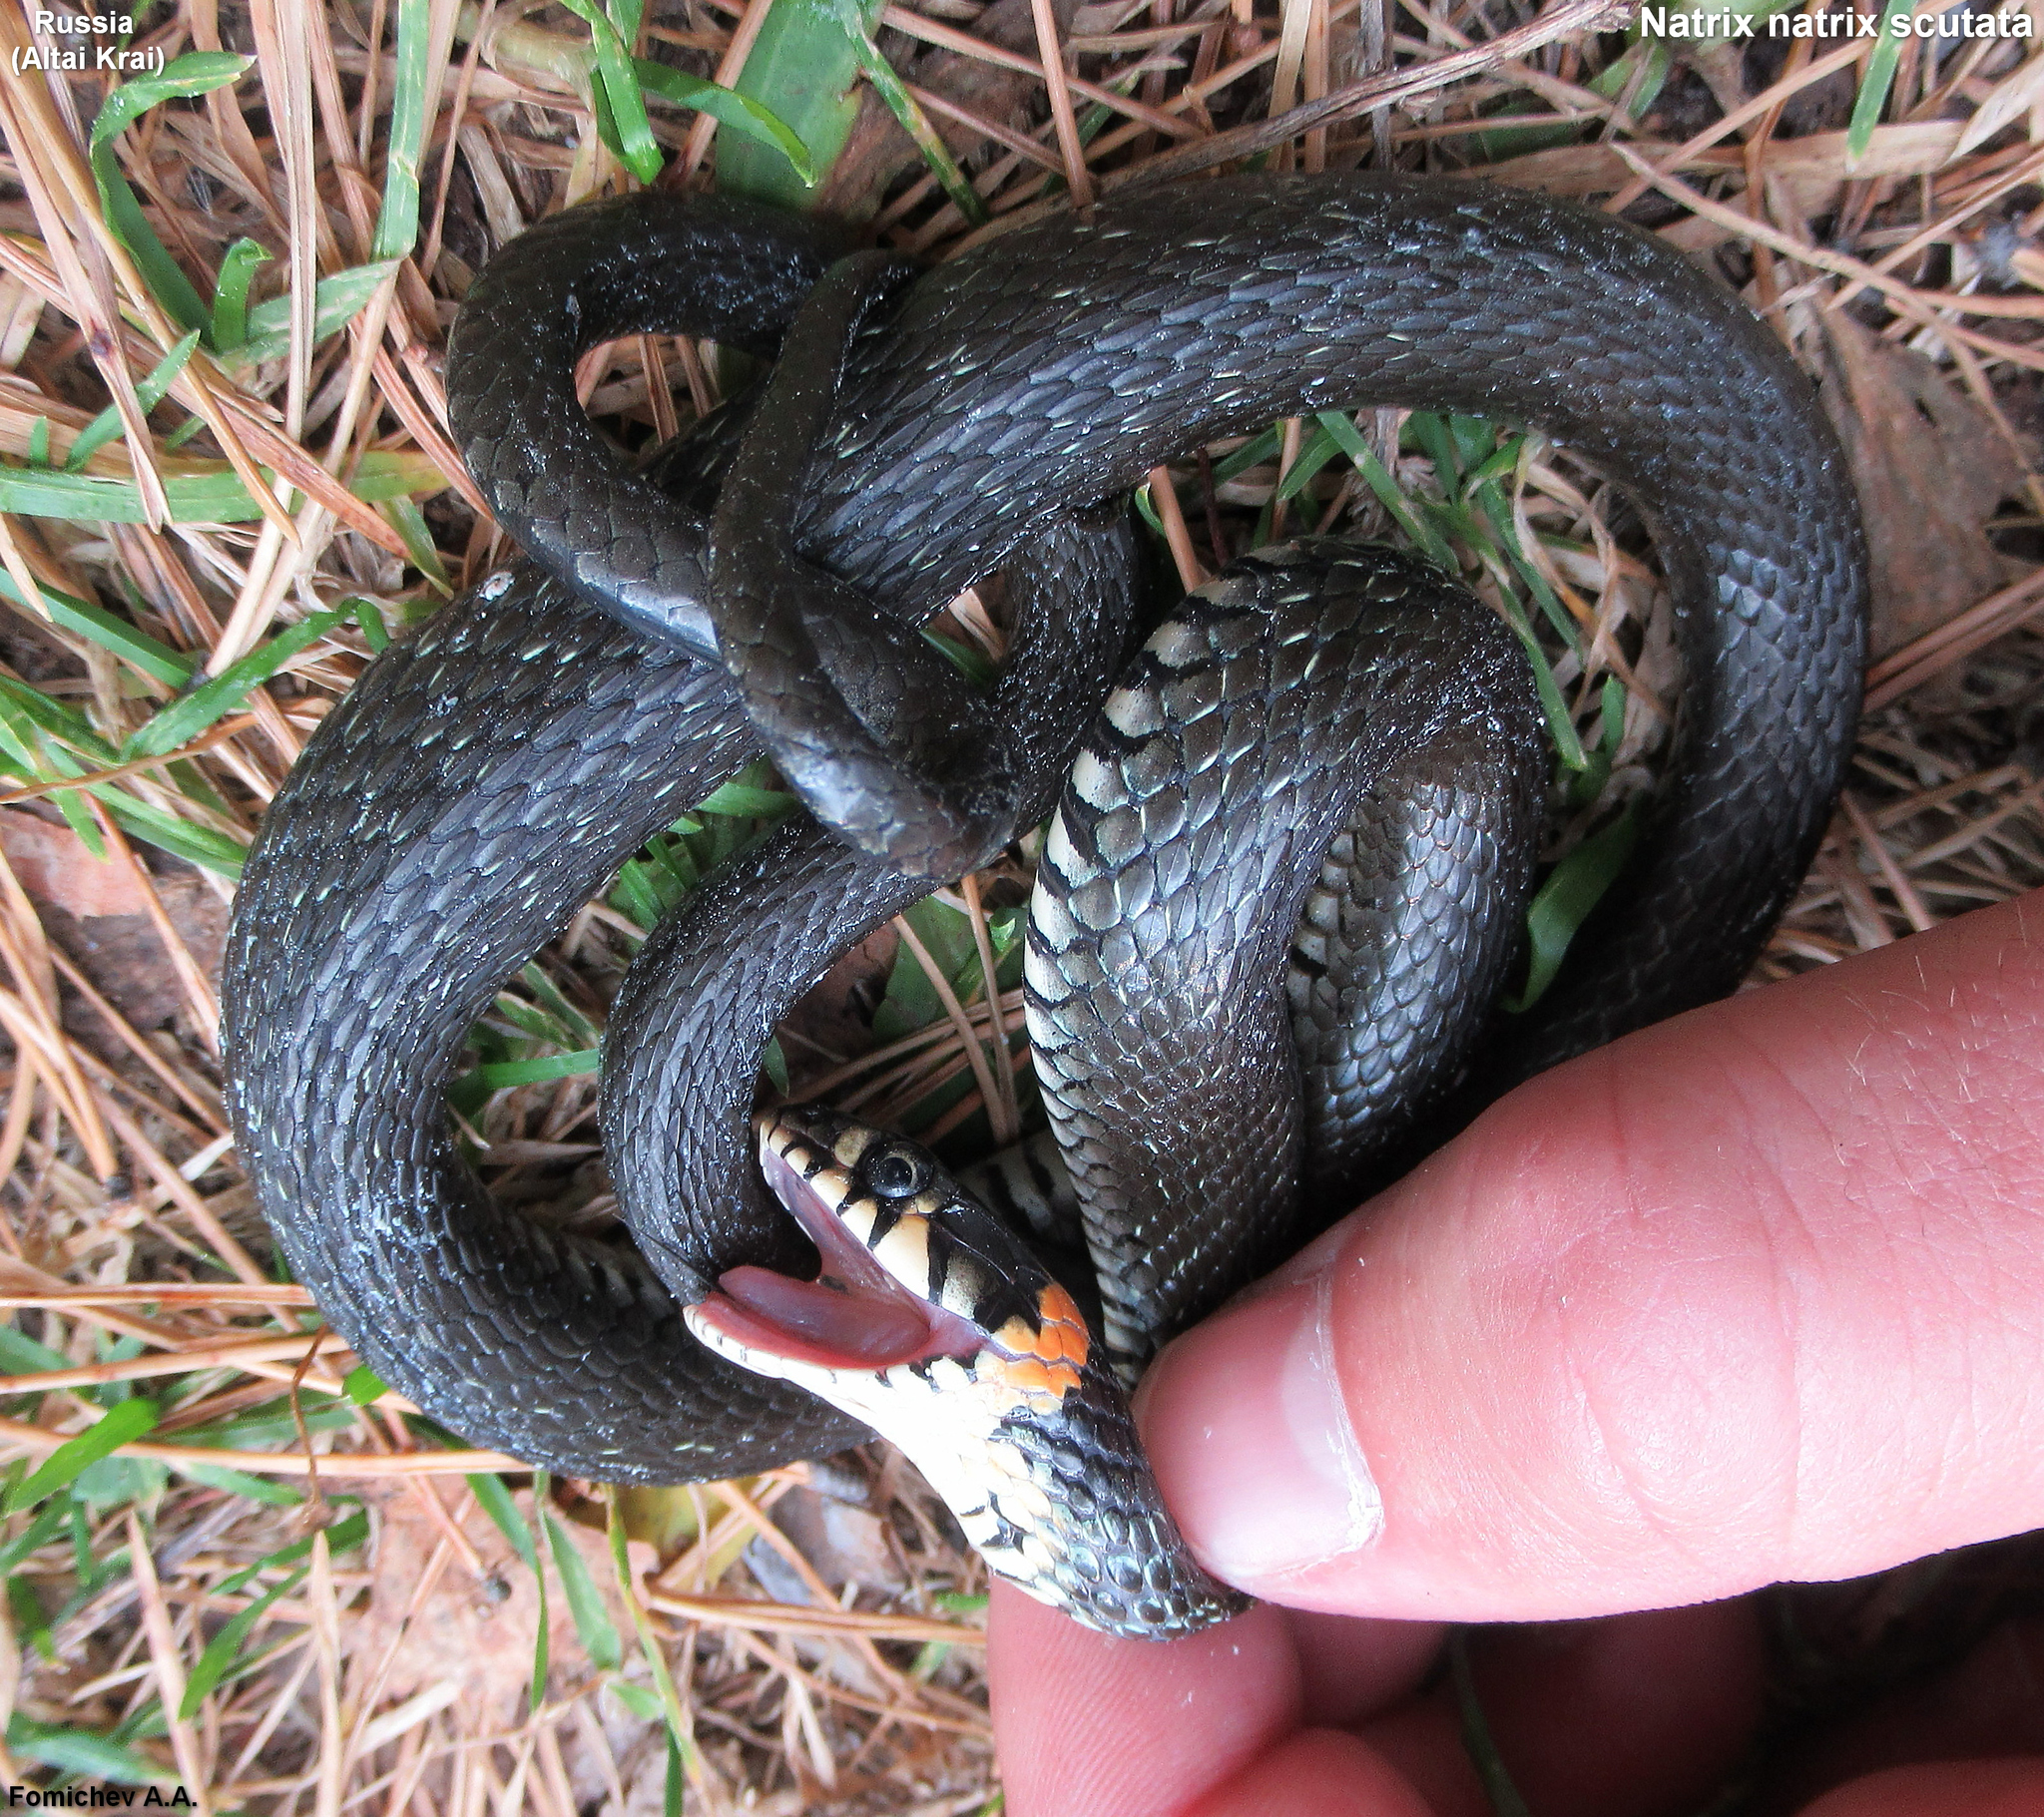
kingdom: Animalia
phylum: Chordata
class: Squamata
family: Colubridae
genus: Natrix
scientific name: Natrix natrix
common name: Grass snake
